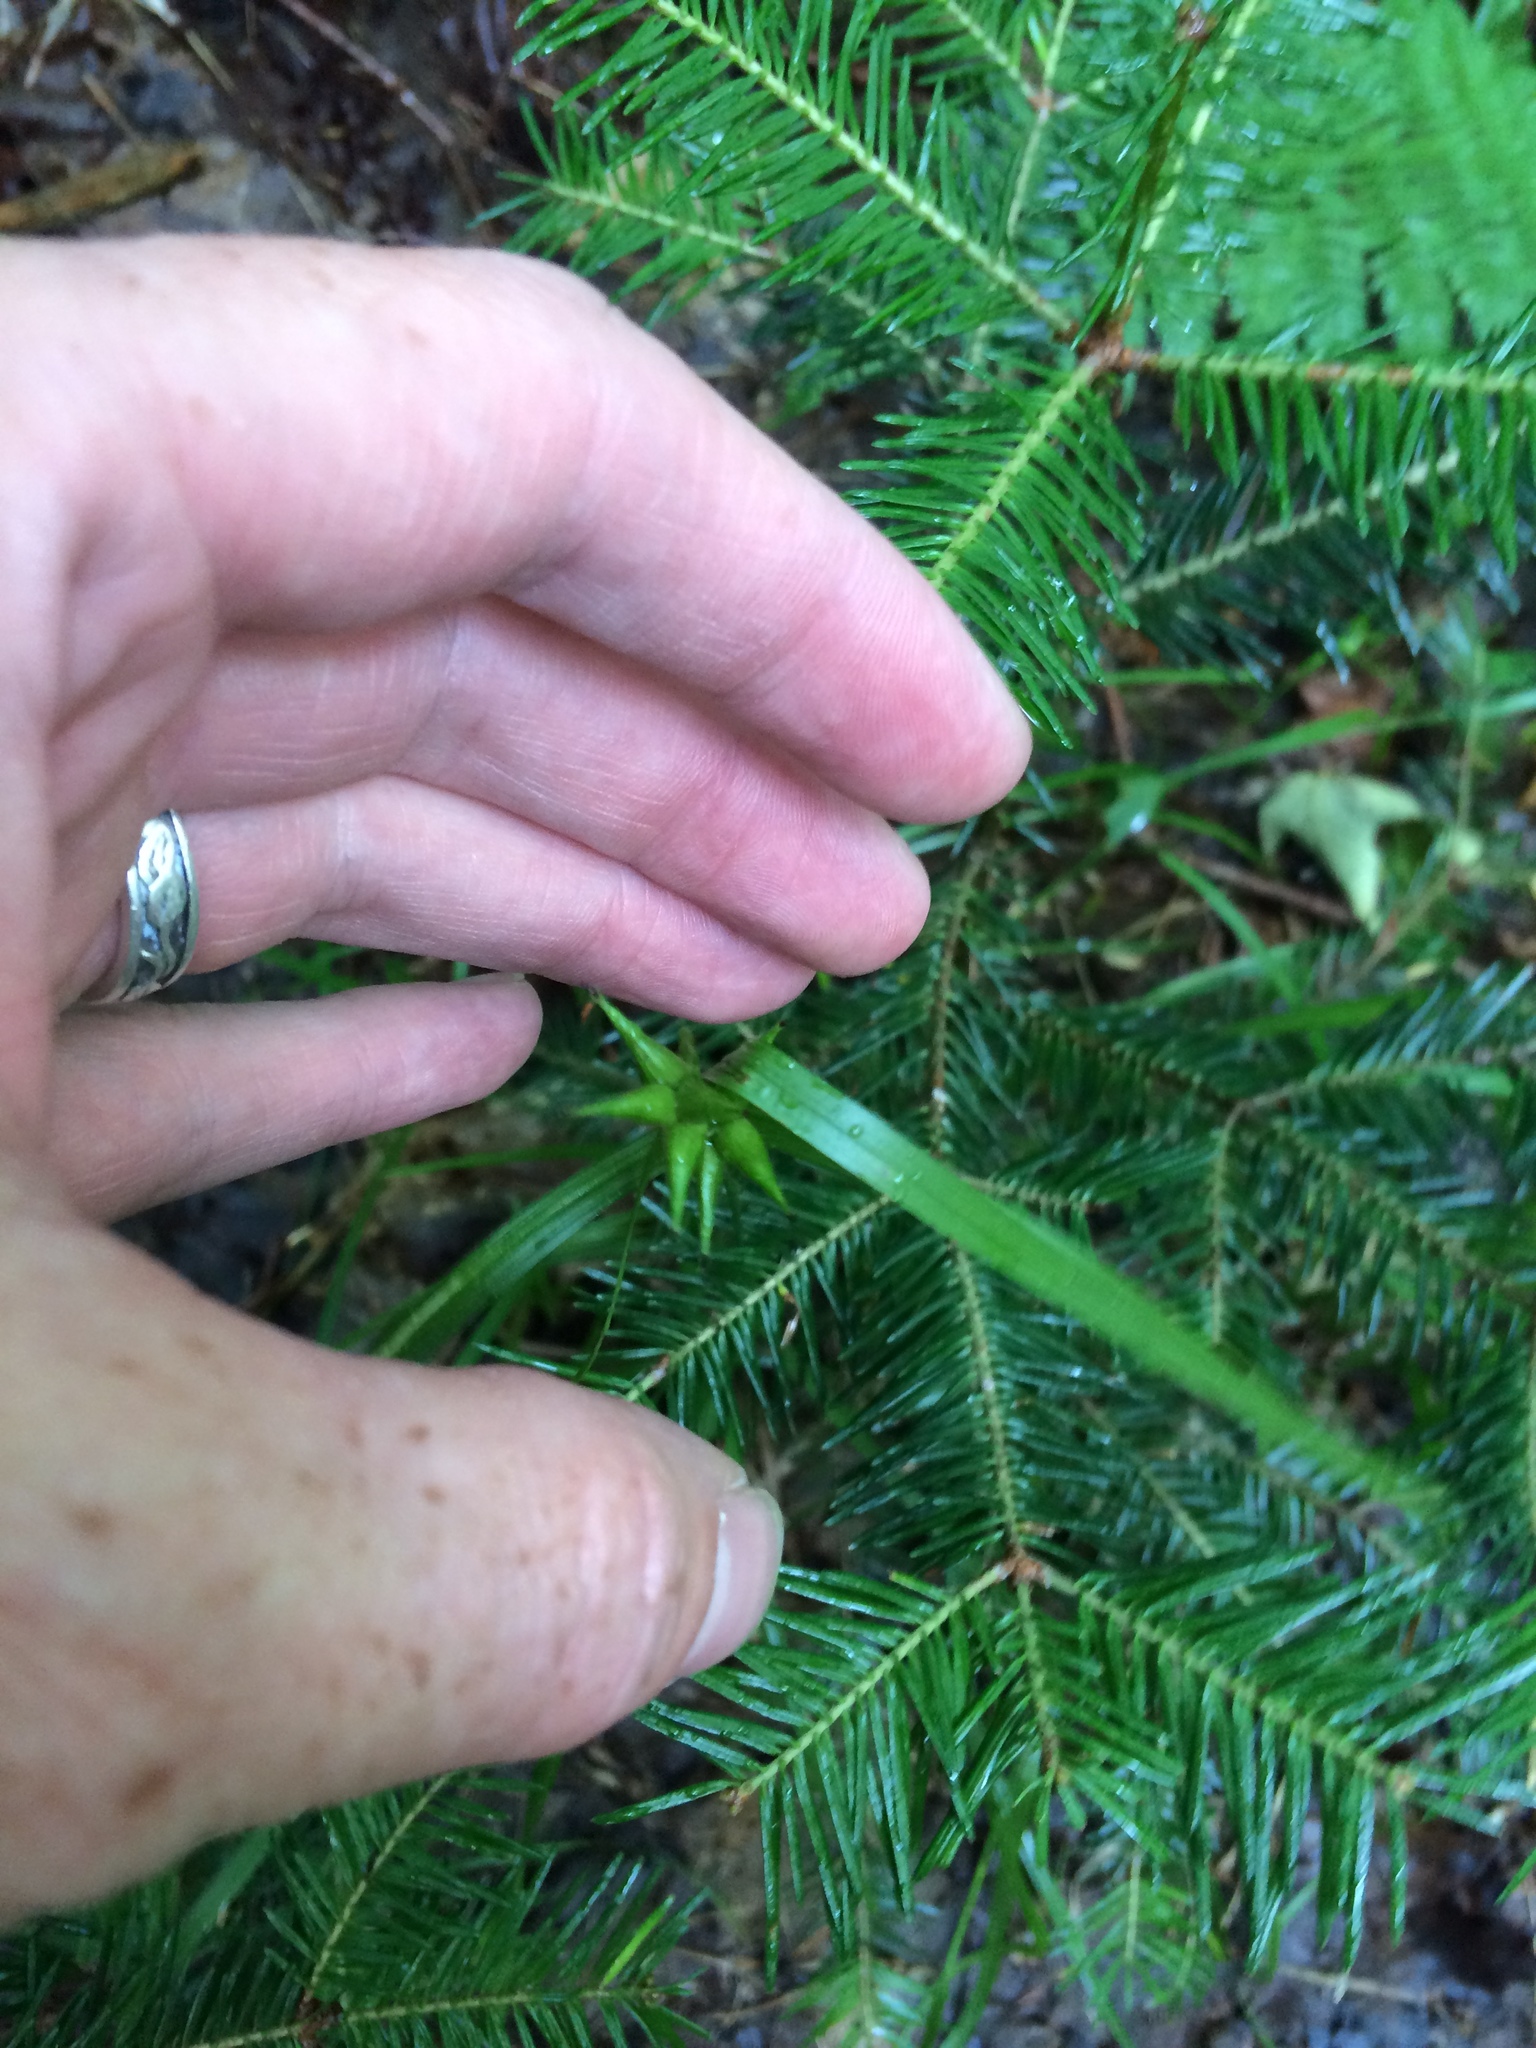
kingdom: Plantae
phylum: Tracheophyta
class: Liliopsida
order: Poales
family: Cyperaceae
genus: Carex
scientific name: Carex intumescens
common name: Greater bladder sedge
